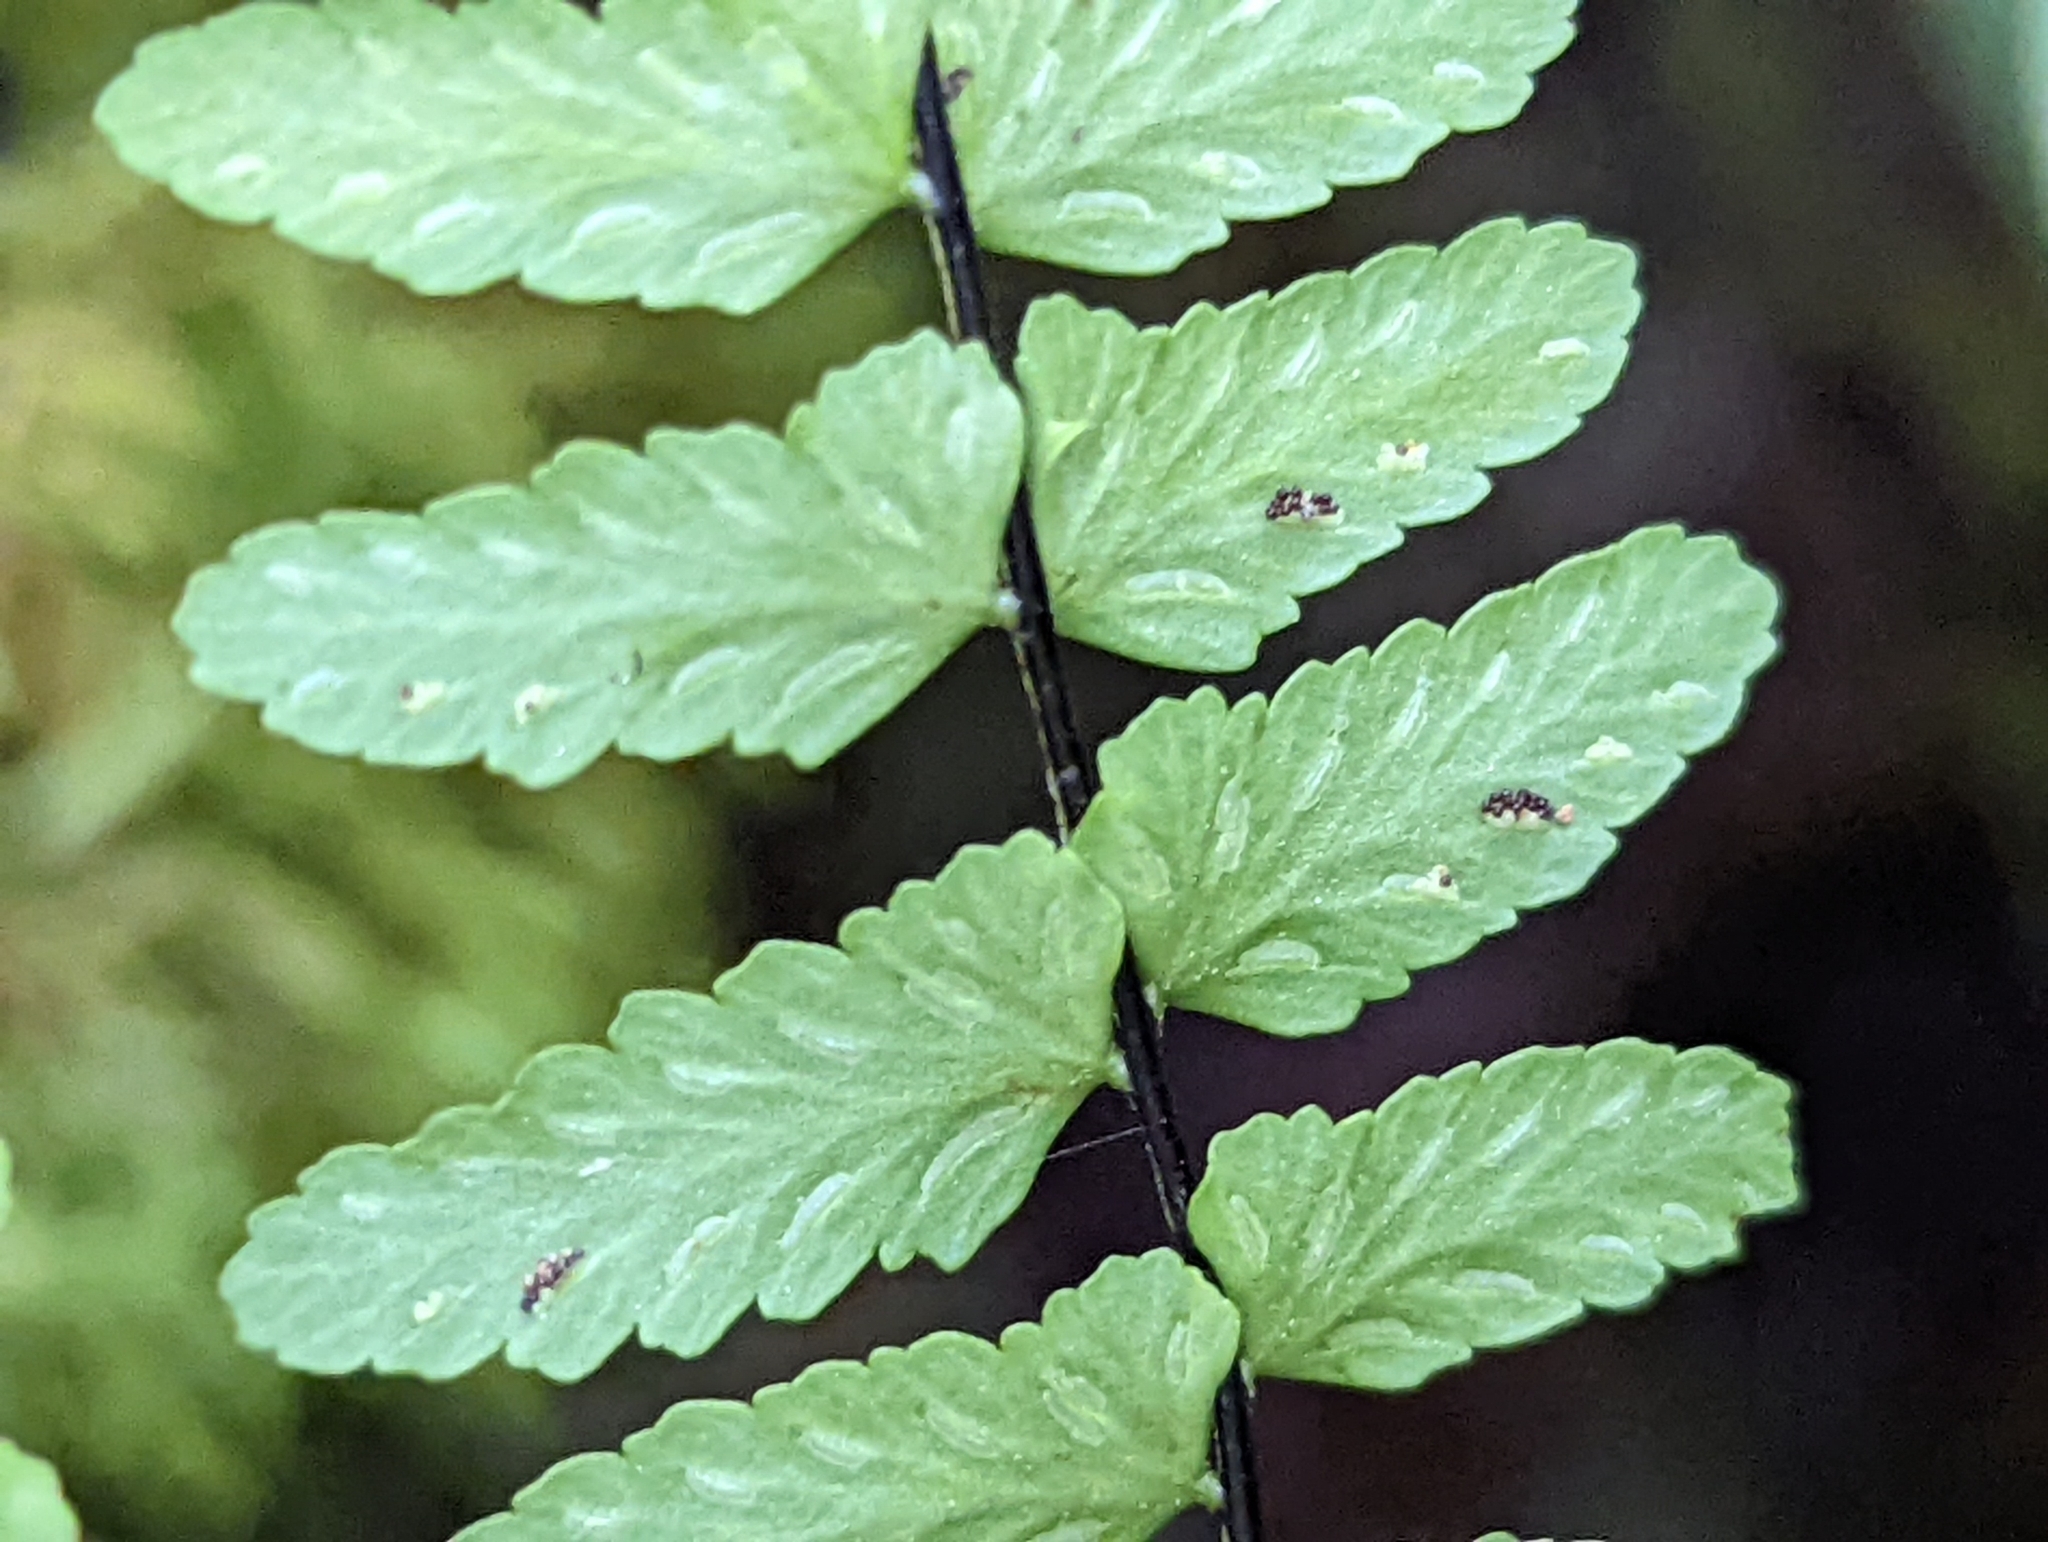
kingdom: Plantae
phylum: Tracheophyta
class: Polypodiopsida
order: Polypodiales
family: Aspleniaceae
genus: Asplenium
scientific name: Asplenium resiliens
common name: Blackstem spleenwort
